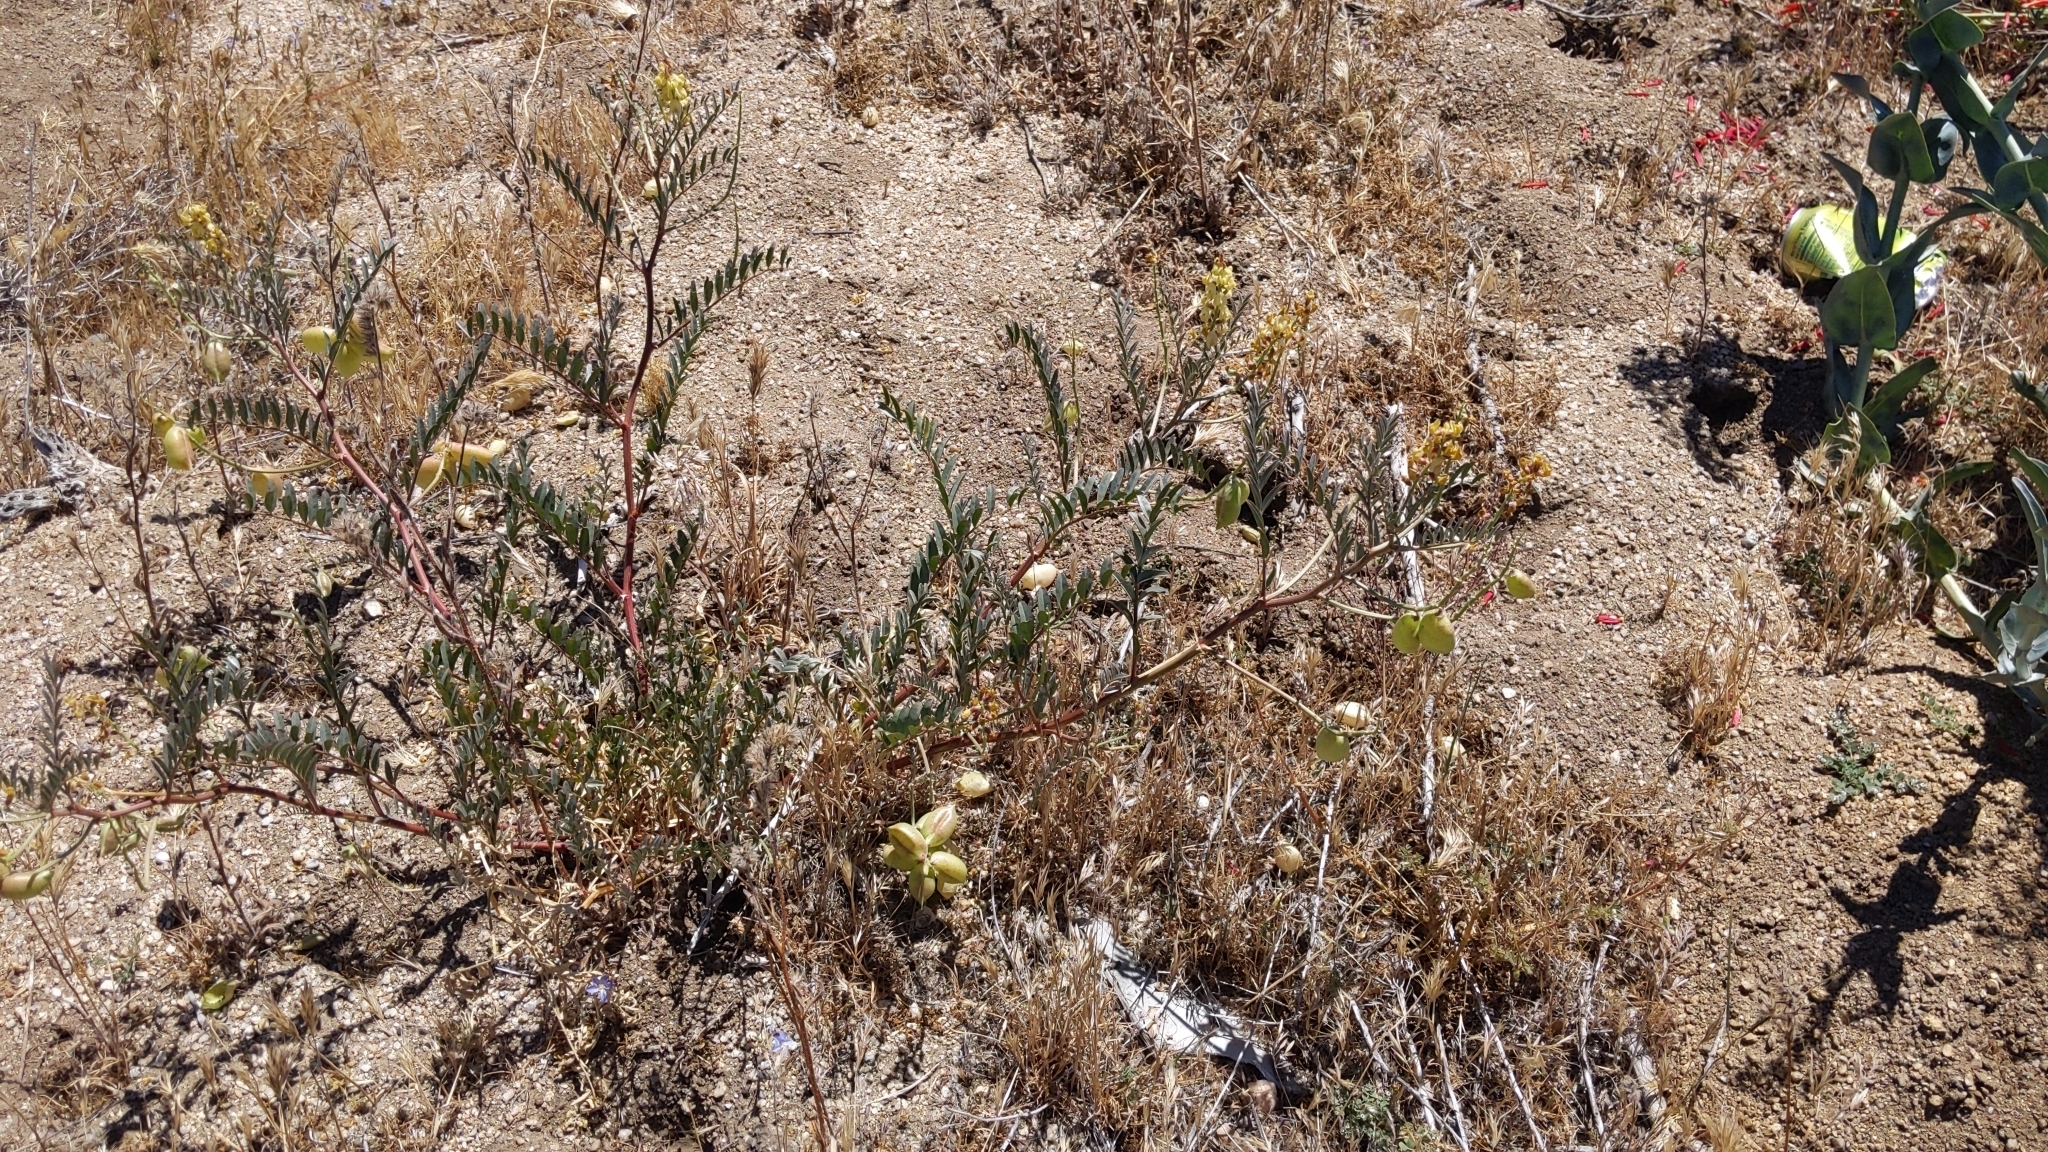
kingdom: Plantae
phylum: Tracheophyta
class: Magnoliopsida
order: Fabales
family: Fabaceae
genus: Astragalus
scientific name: Astragalus douglasii
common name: Jacumba milkvetch
